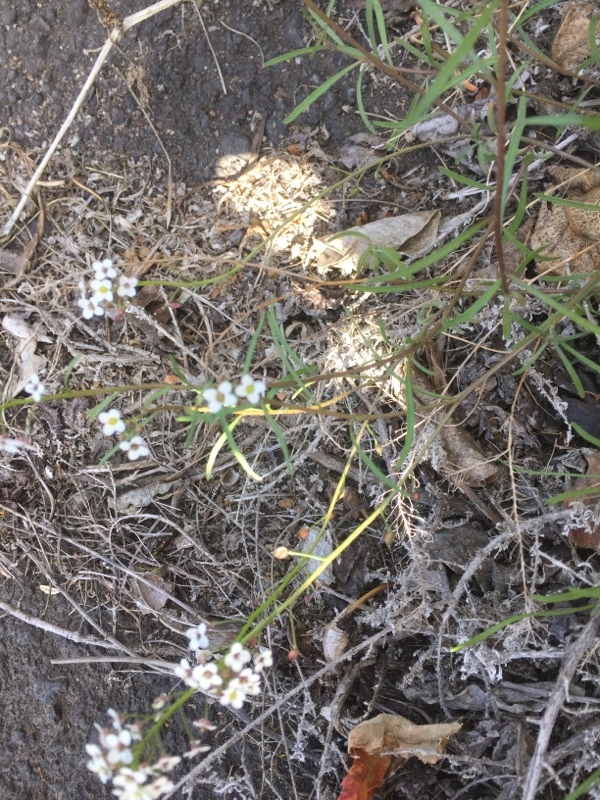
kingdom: Plantae
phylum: Tracheophyta
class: Magnoliopsida
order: Brassicales
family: Brassicaceae
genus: Lobularia
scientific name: Lobularia maritima
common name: Sweet alison
